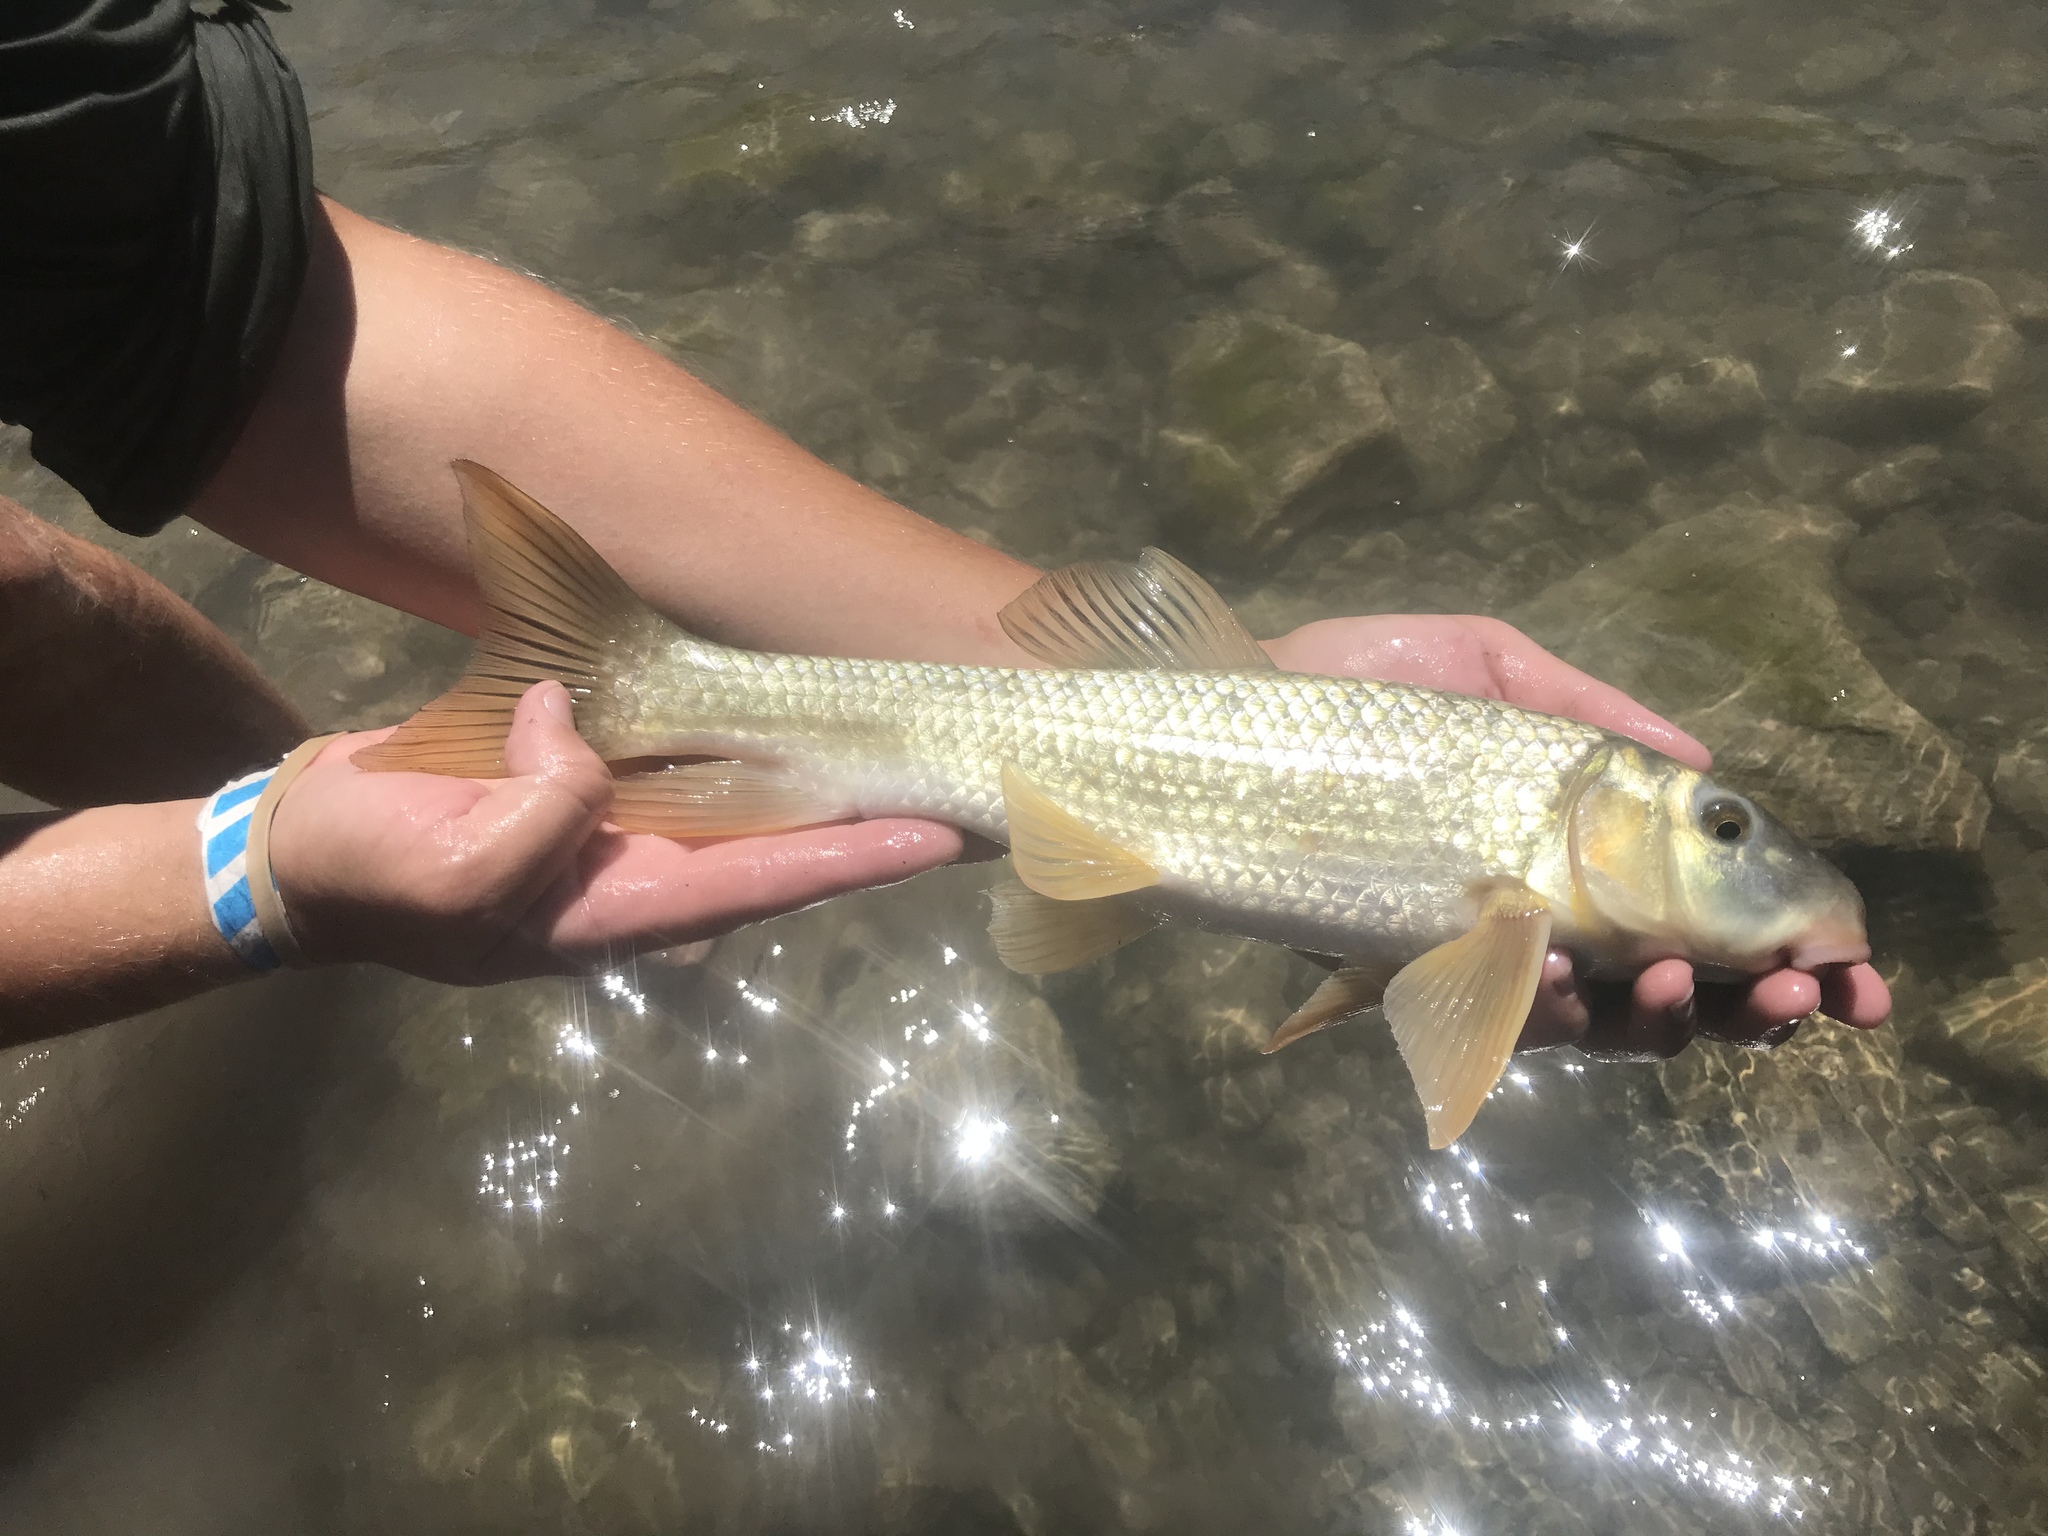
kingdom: Animalia
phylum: Chordata
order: Cypriniformes
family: Catostomidae
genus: Moxostoma
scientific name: Moxostoma congestum
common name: Gray redhorse
